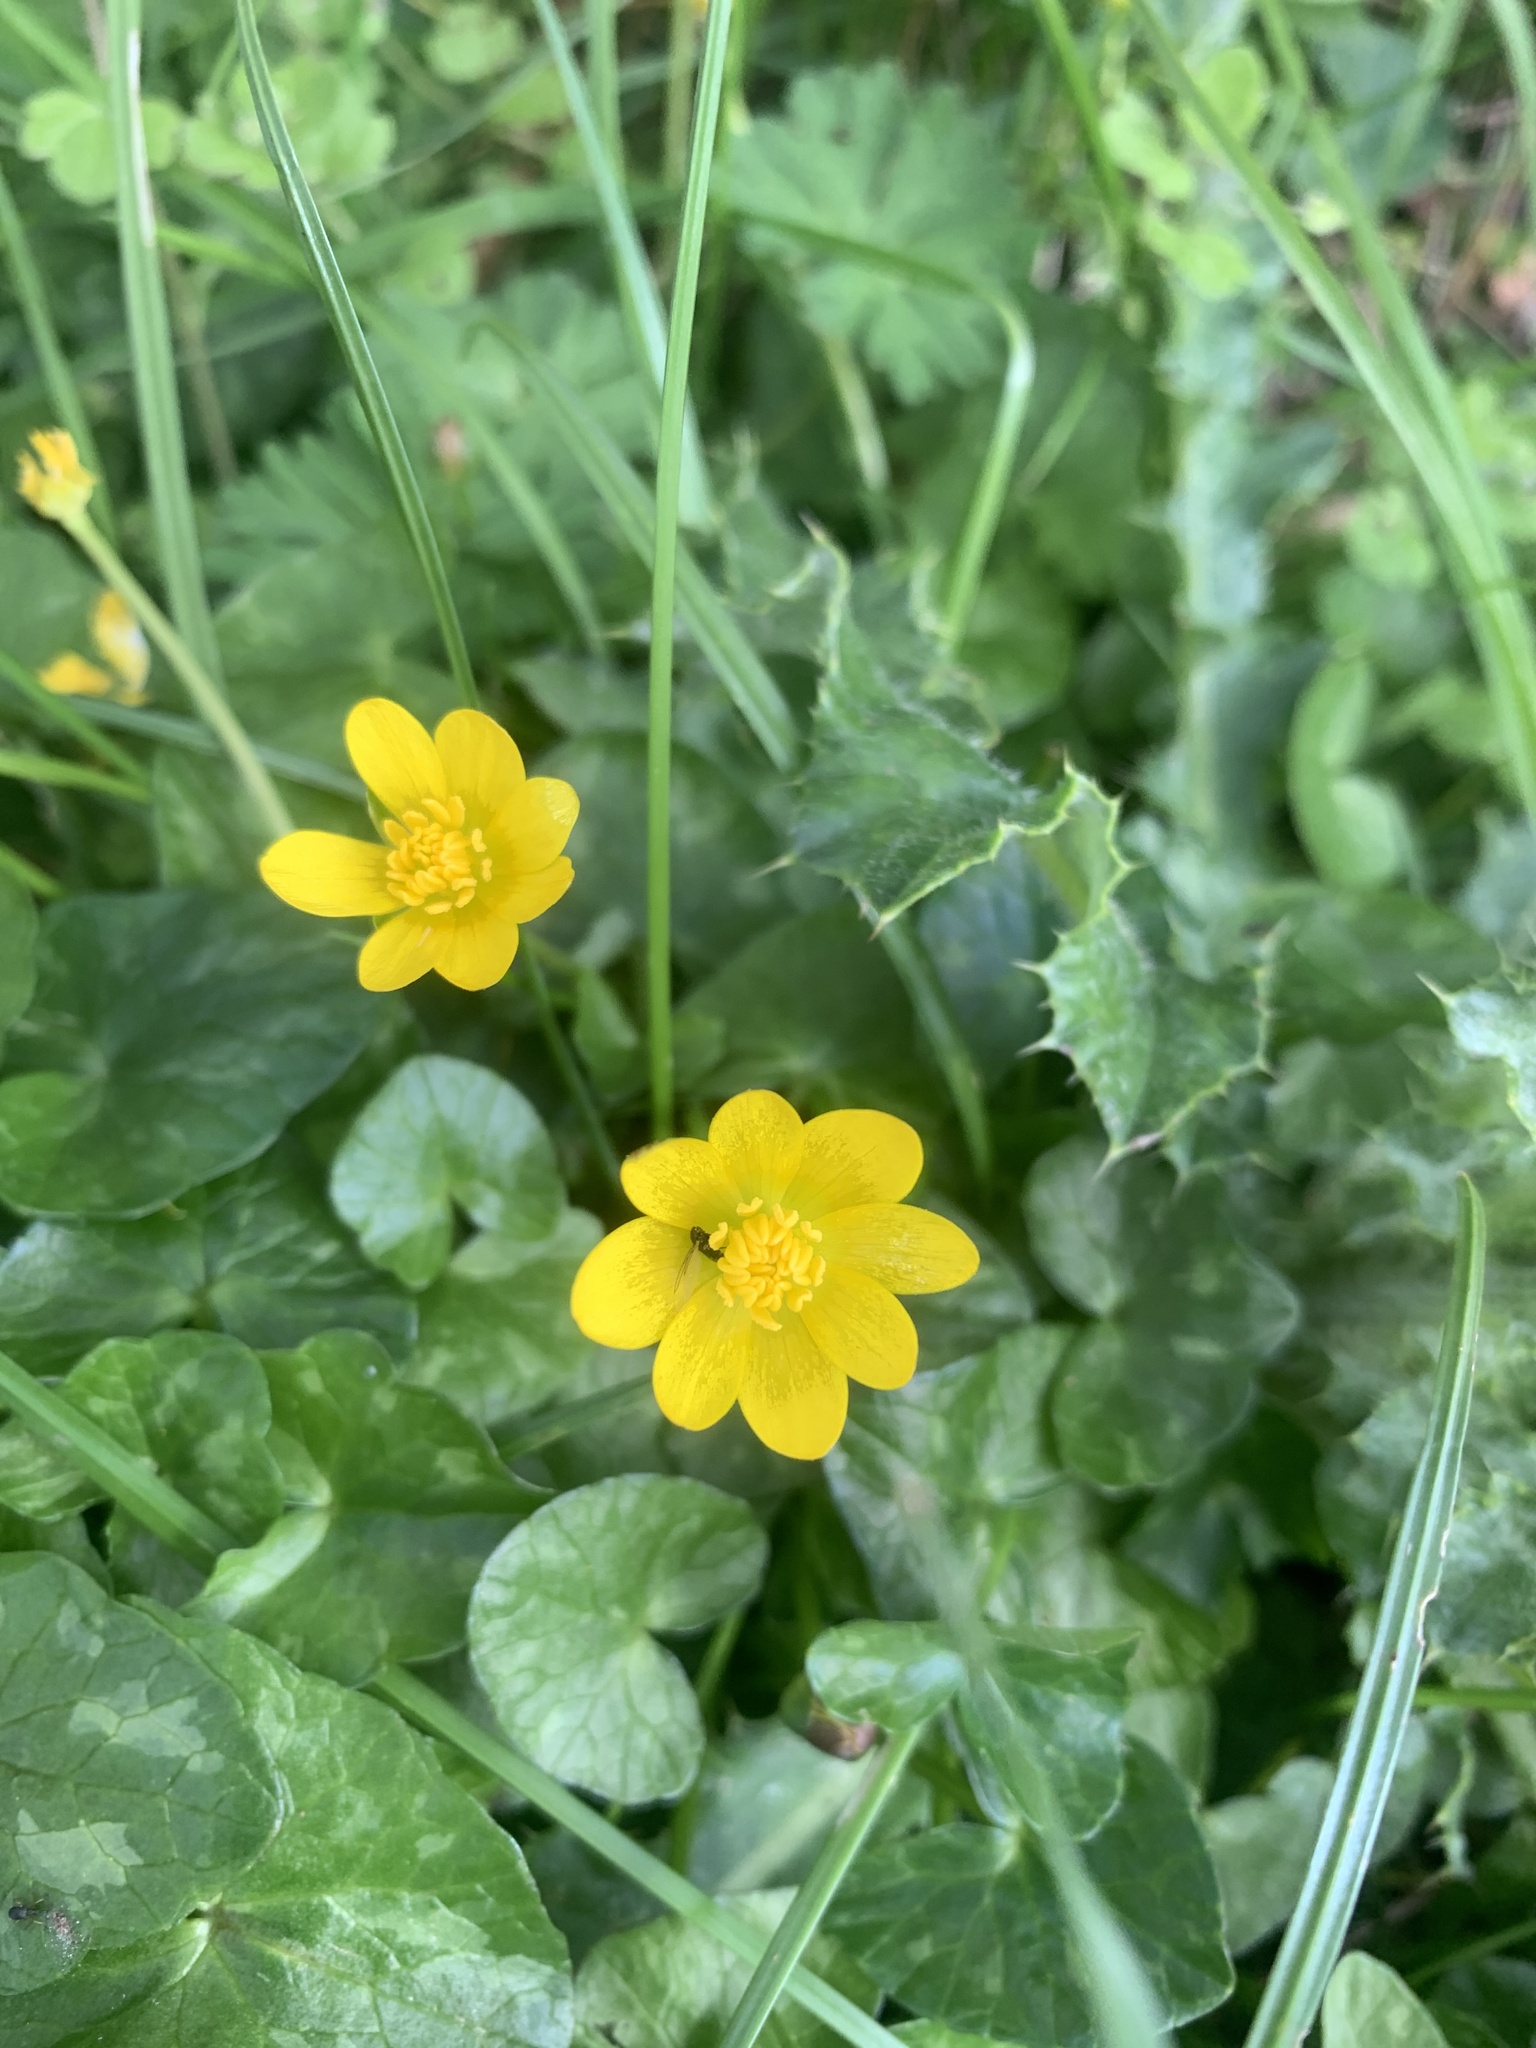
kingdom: Plantae
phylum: Tracheophyta
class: Magnoliopsida
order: Ranunculales
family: Ranunculaceae
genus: Ficaria
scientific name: Ficaria verna
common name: Lesser celandine
